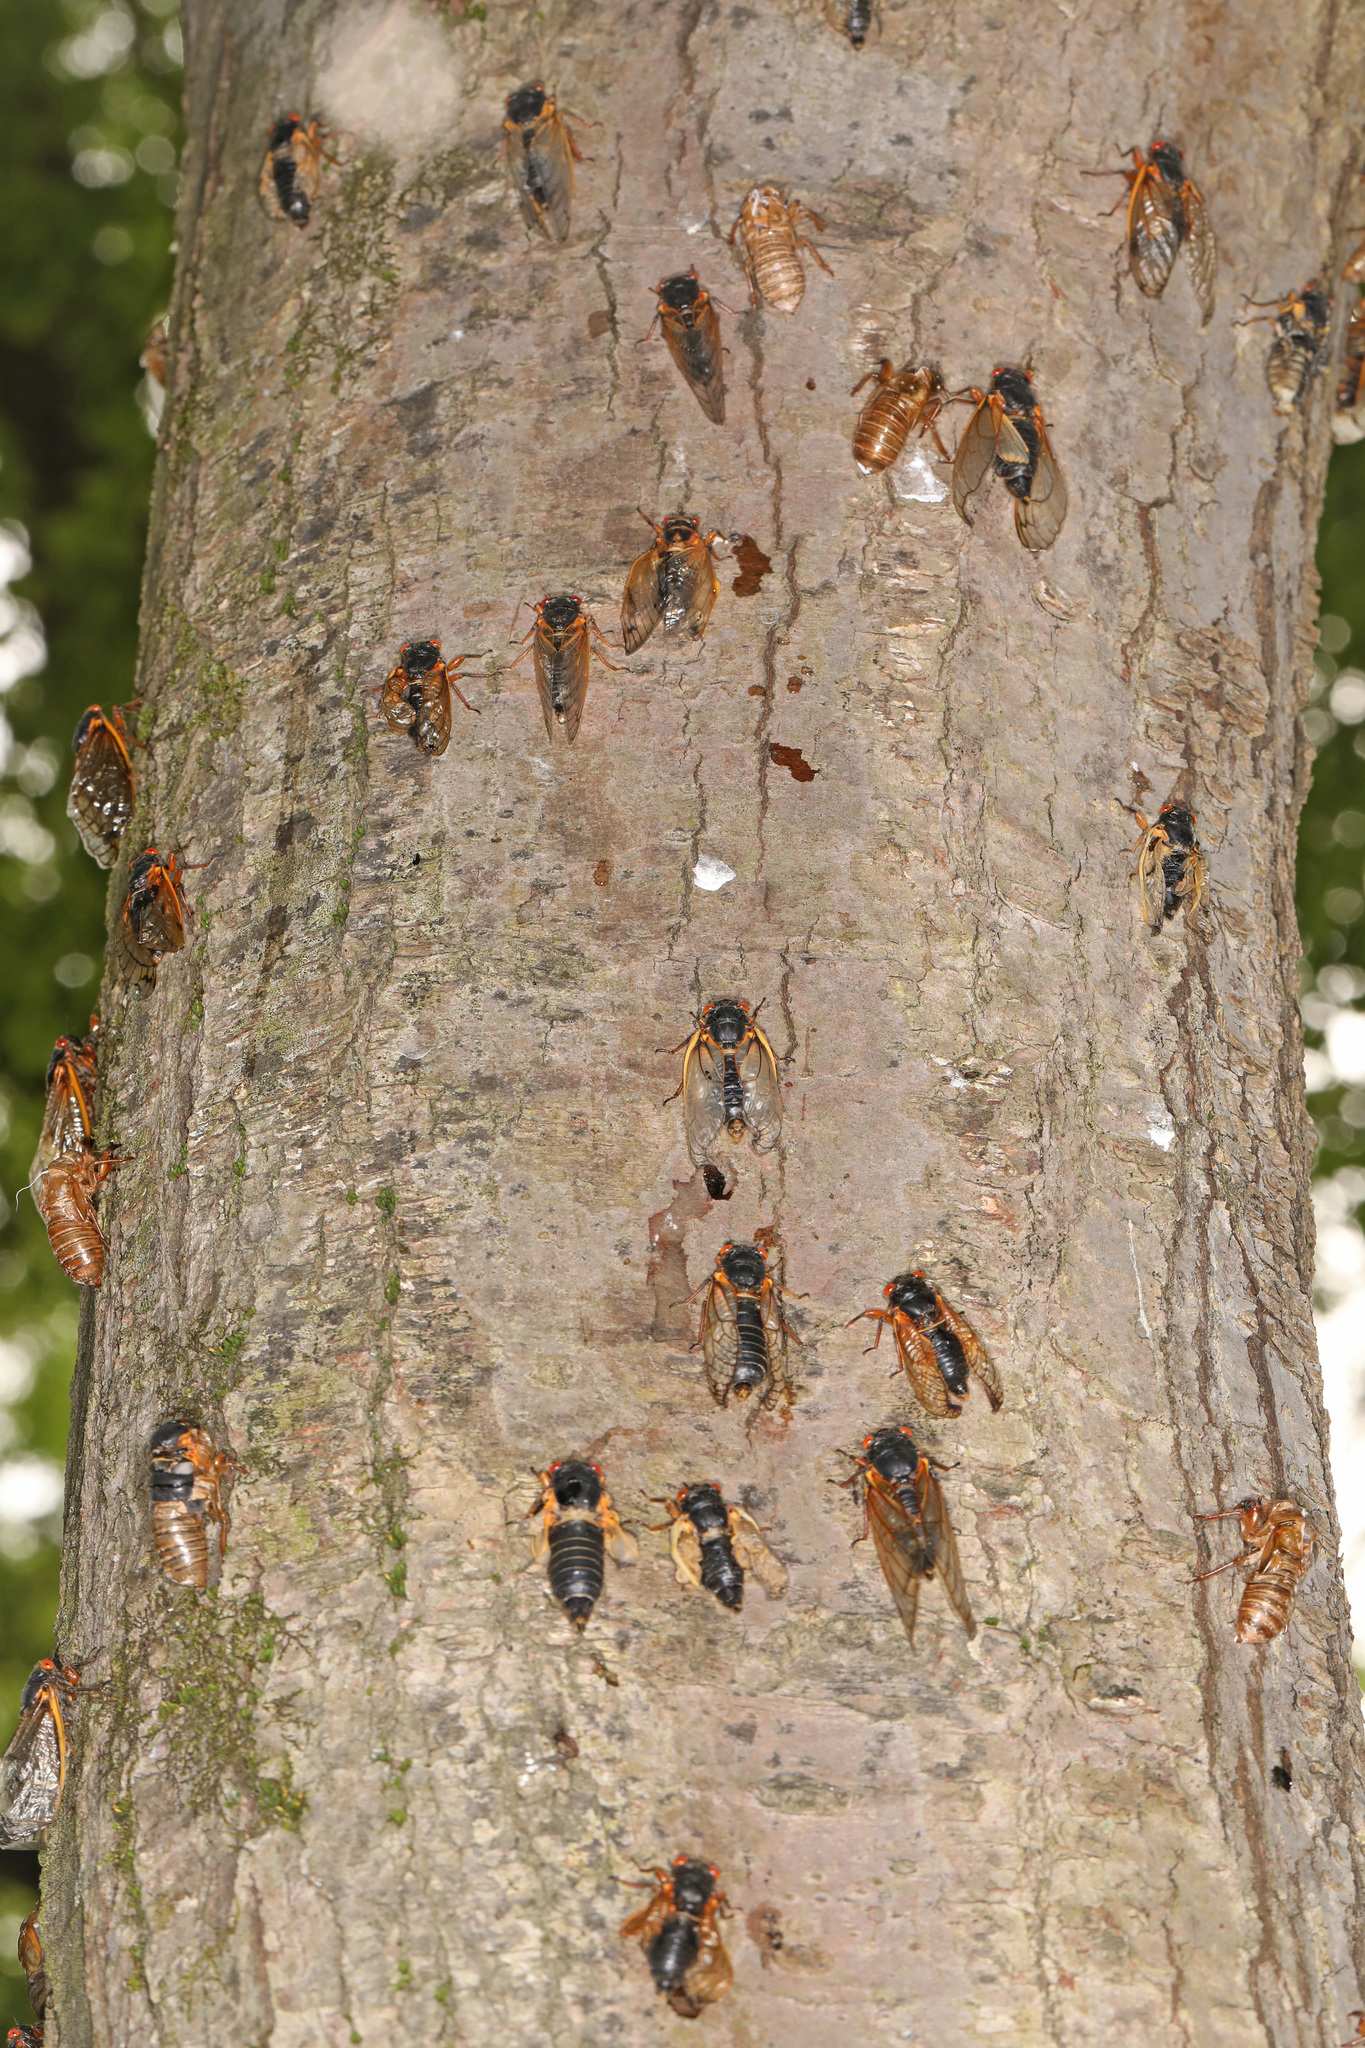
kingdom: Animalia
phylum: Arthropoda
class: Insecta
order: Hemiptera
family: Cicadidae
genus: Magicicada
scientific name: Magicicada
